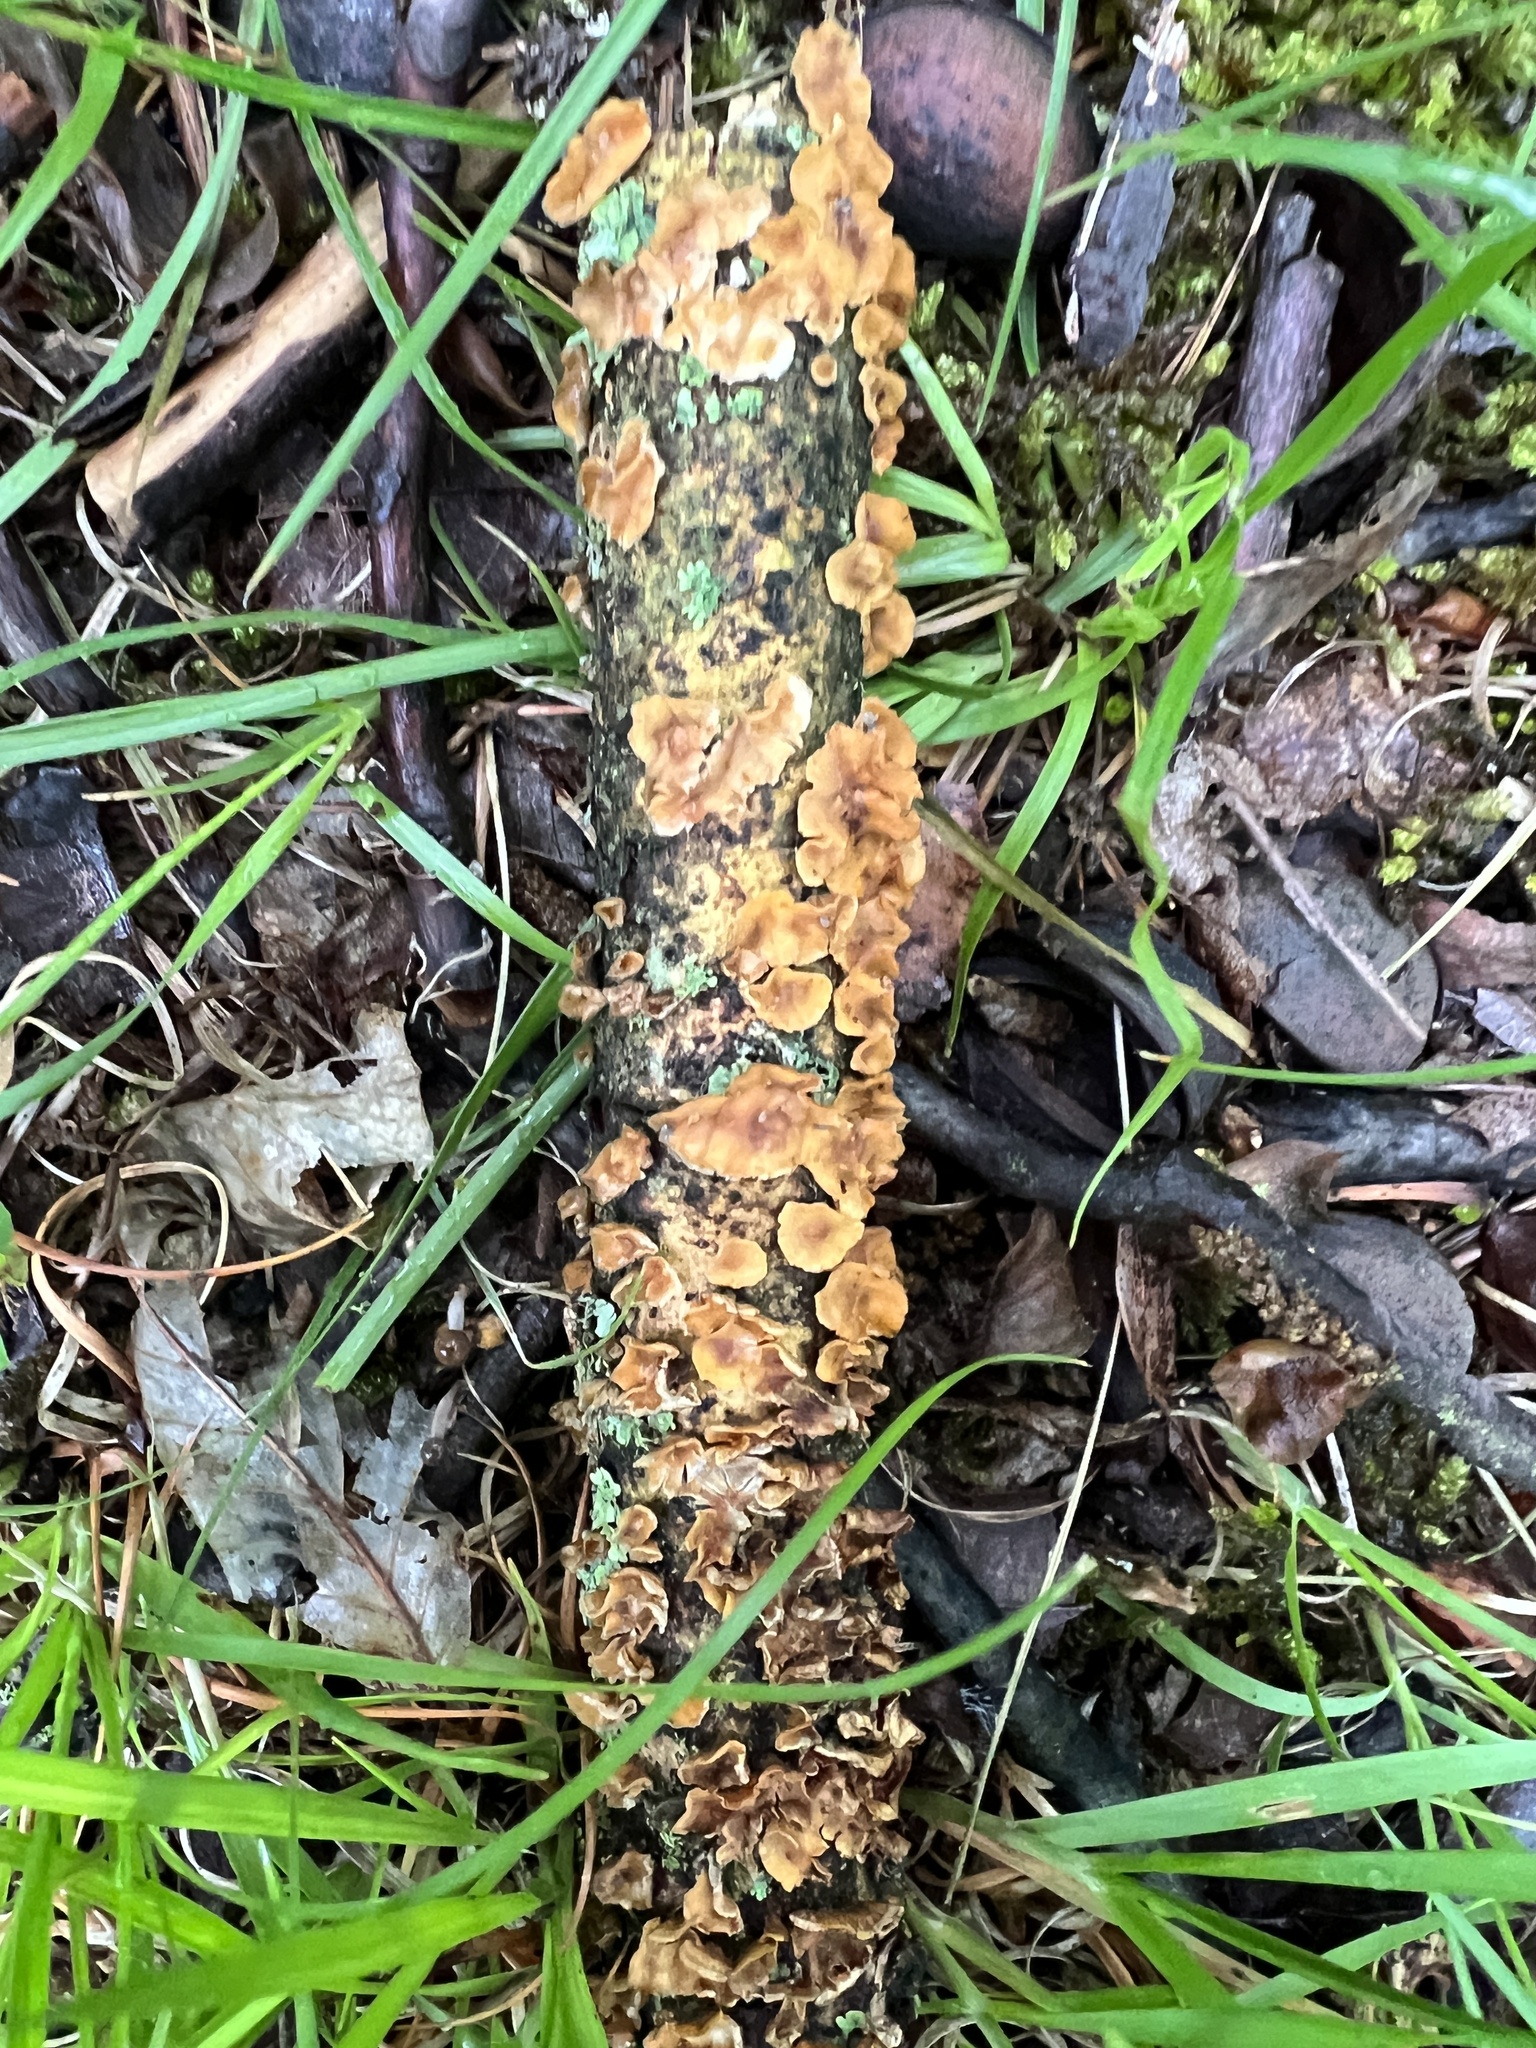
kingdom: Fungi
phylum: Basidiomycota
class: Agaricomycetes
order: Russulales
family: Stereaceae
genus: Stereum
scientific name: Stereum complicatum
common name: Crowded parchment
